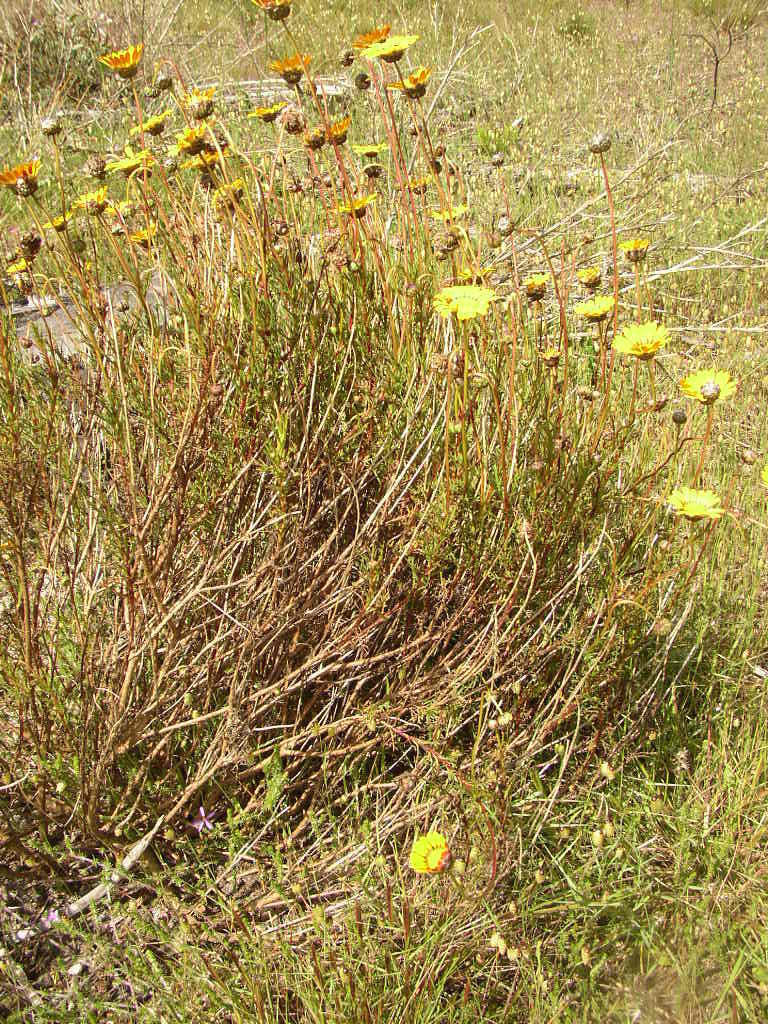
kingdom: Plantae
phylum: Tracheophyta
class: Magnoliopsida
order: Asterales
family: Asteraceae
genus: Ursinia
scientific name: Ursinia paleacea
